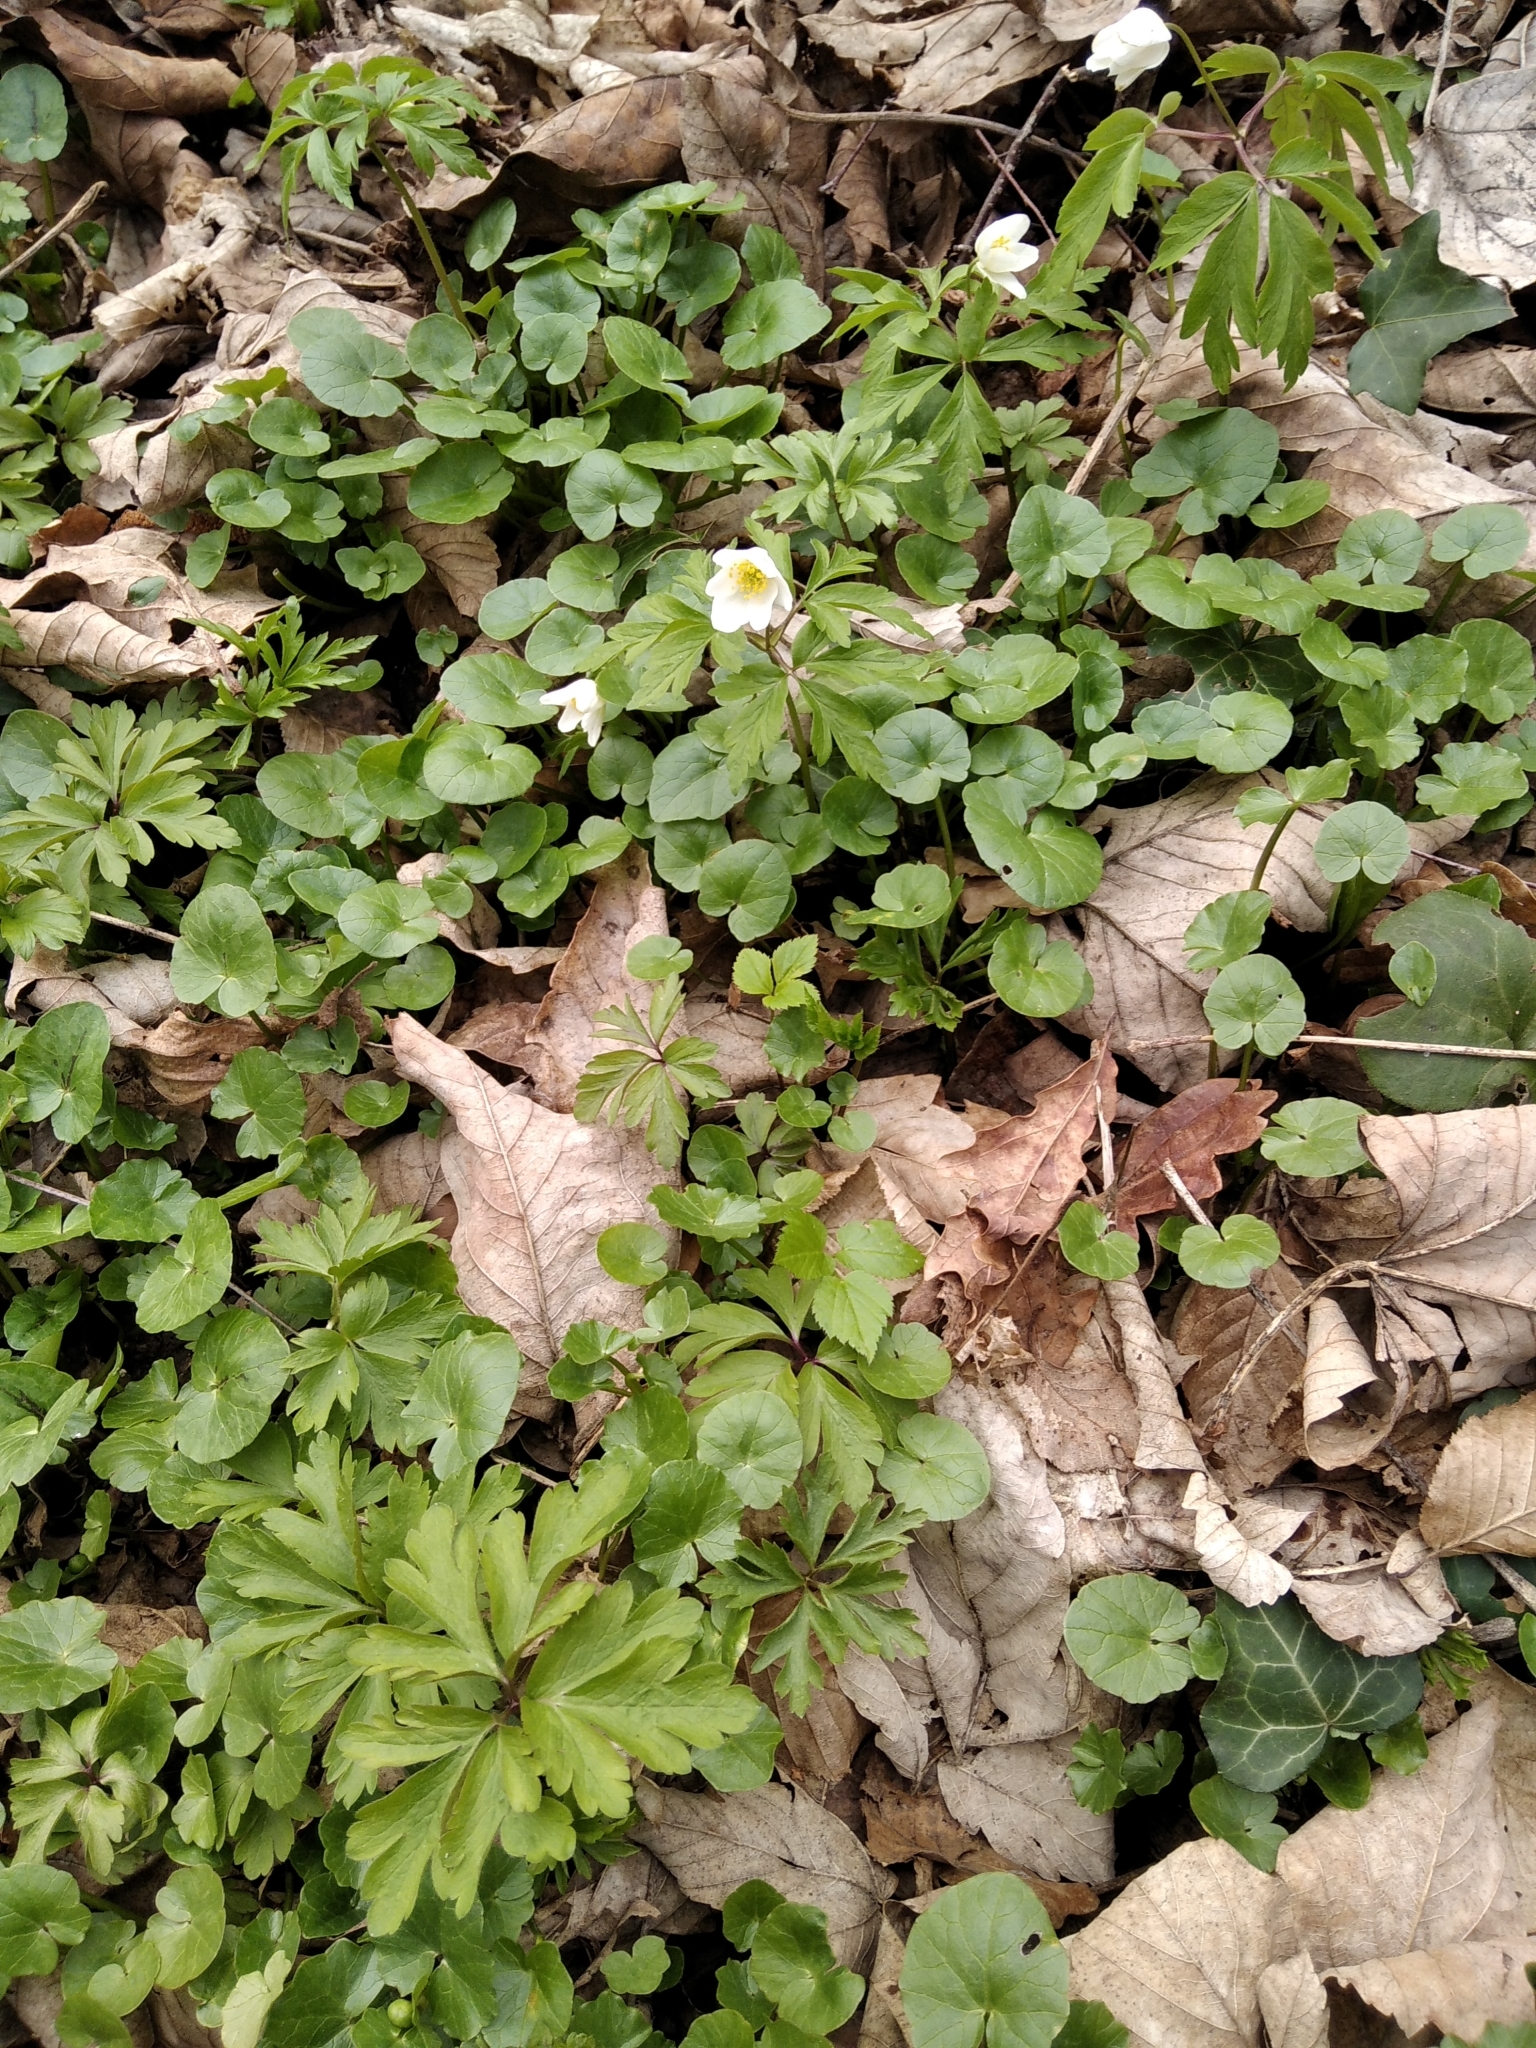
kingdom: Plantae
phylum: Tracheophyta
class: Magnoliopsida
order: Ranunculales
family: Ranunculaceae
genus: Anemone
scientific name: Anemone nemorosa
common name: Wood anemone
